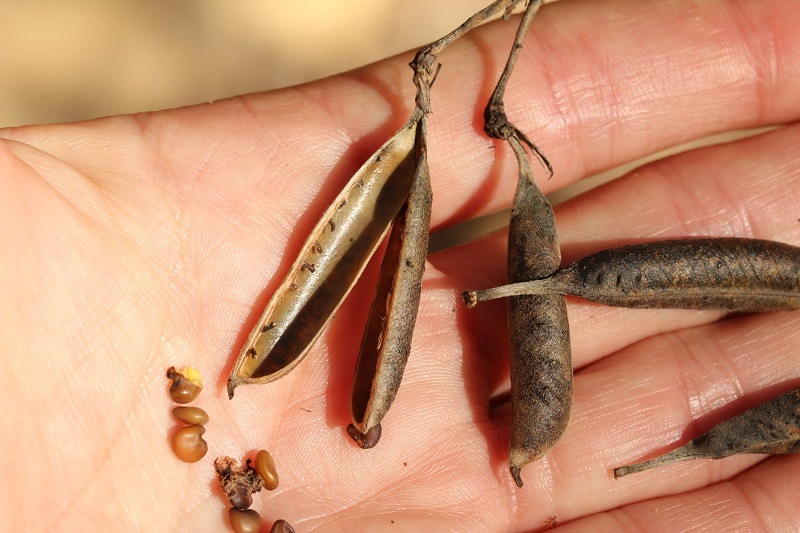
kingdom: Plantae
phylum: Tracheophyta
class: Magnoliopsida
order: Fabales
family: Fabaceae
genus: Crotalaria
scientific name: Crotalaria capensis
